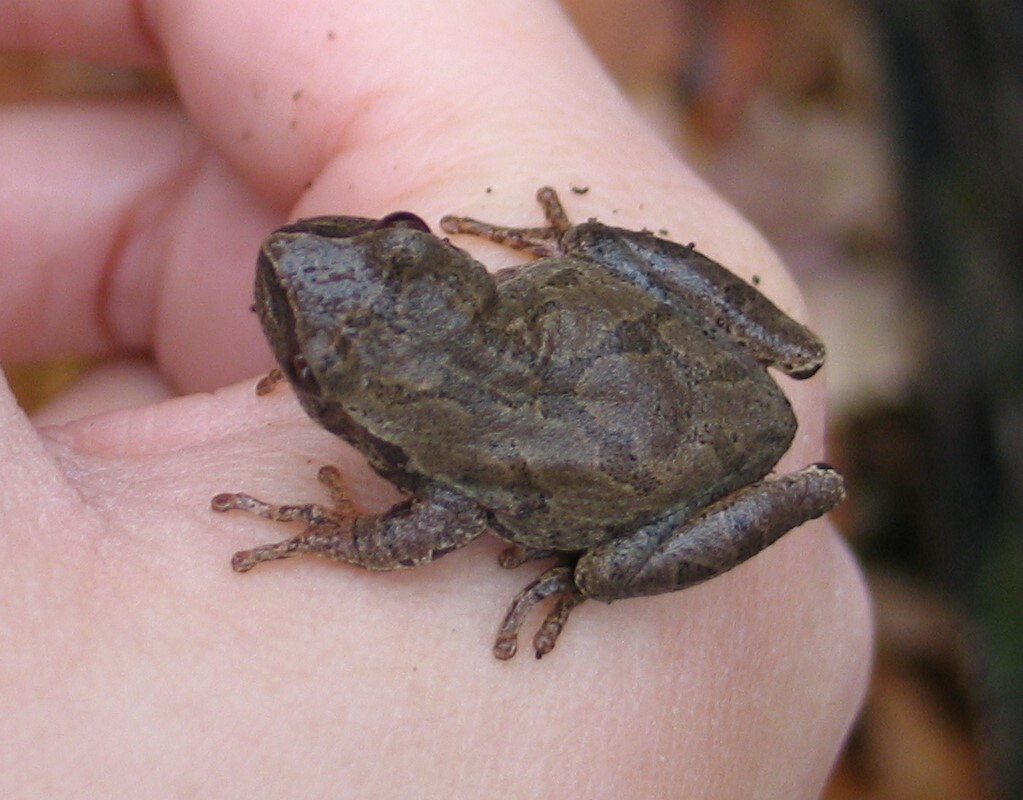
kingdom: Animalia
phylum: Chordata
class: Amphibia
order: Anura
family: Hylidae
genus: Pseudacris
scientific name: Pseudacris crucifer
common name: Spring peeper
